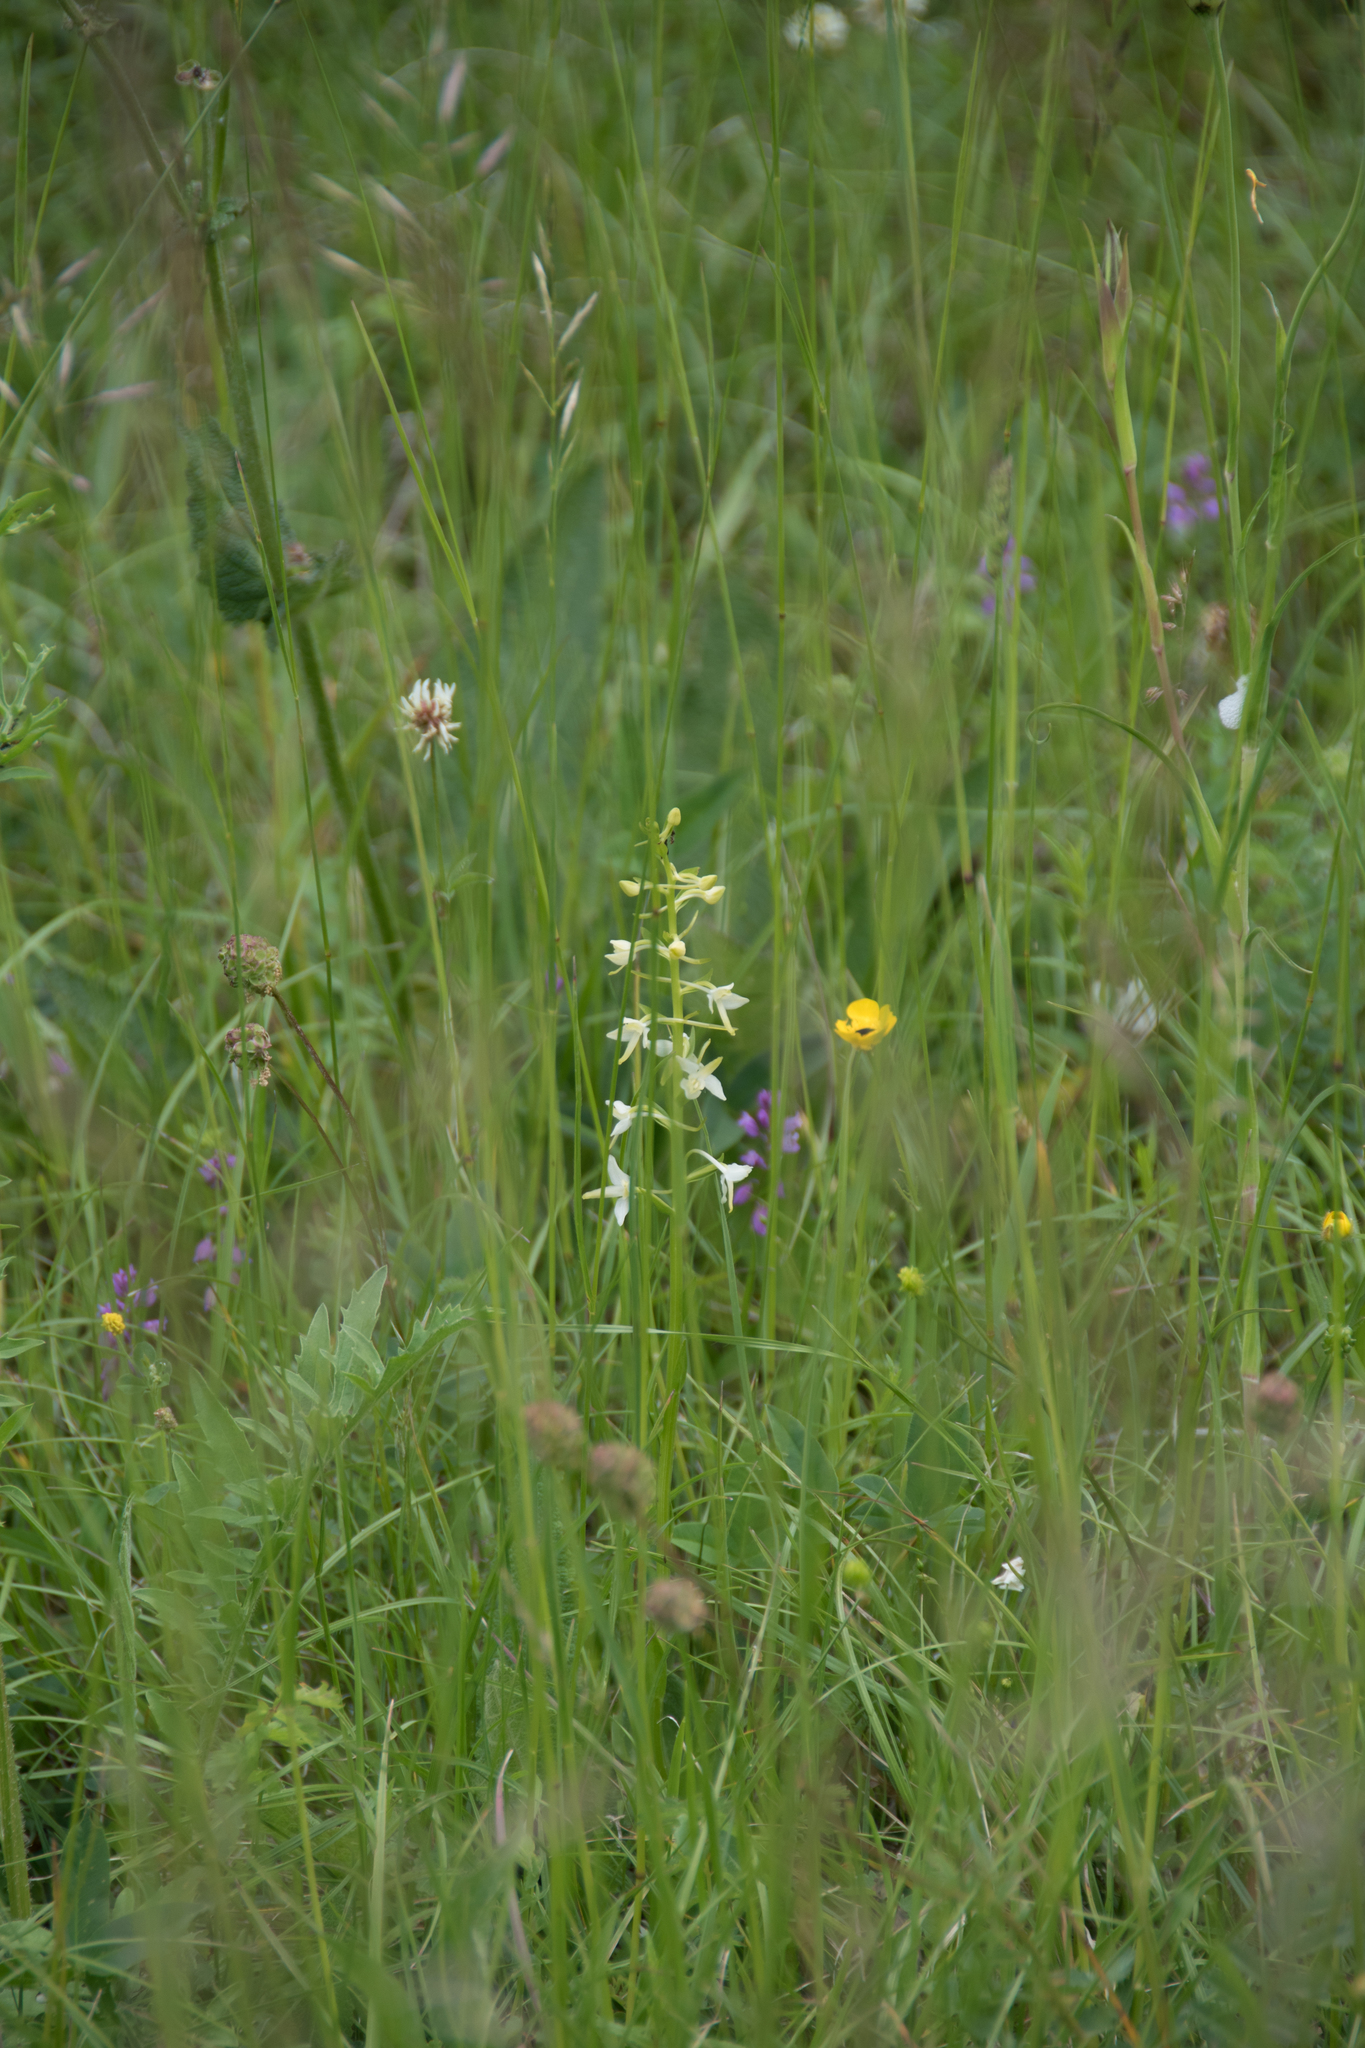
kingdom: Plantae
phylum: Tracheophyta
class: Liliopsida
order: Asparagales
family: Orchidaceae
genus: Platanthera
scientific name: Platanthera bifolia
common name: Lesser butterfly-orchid
